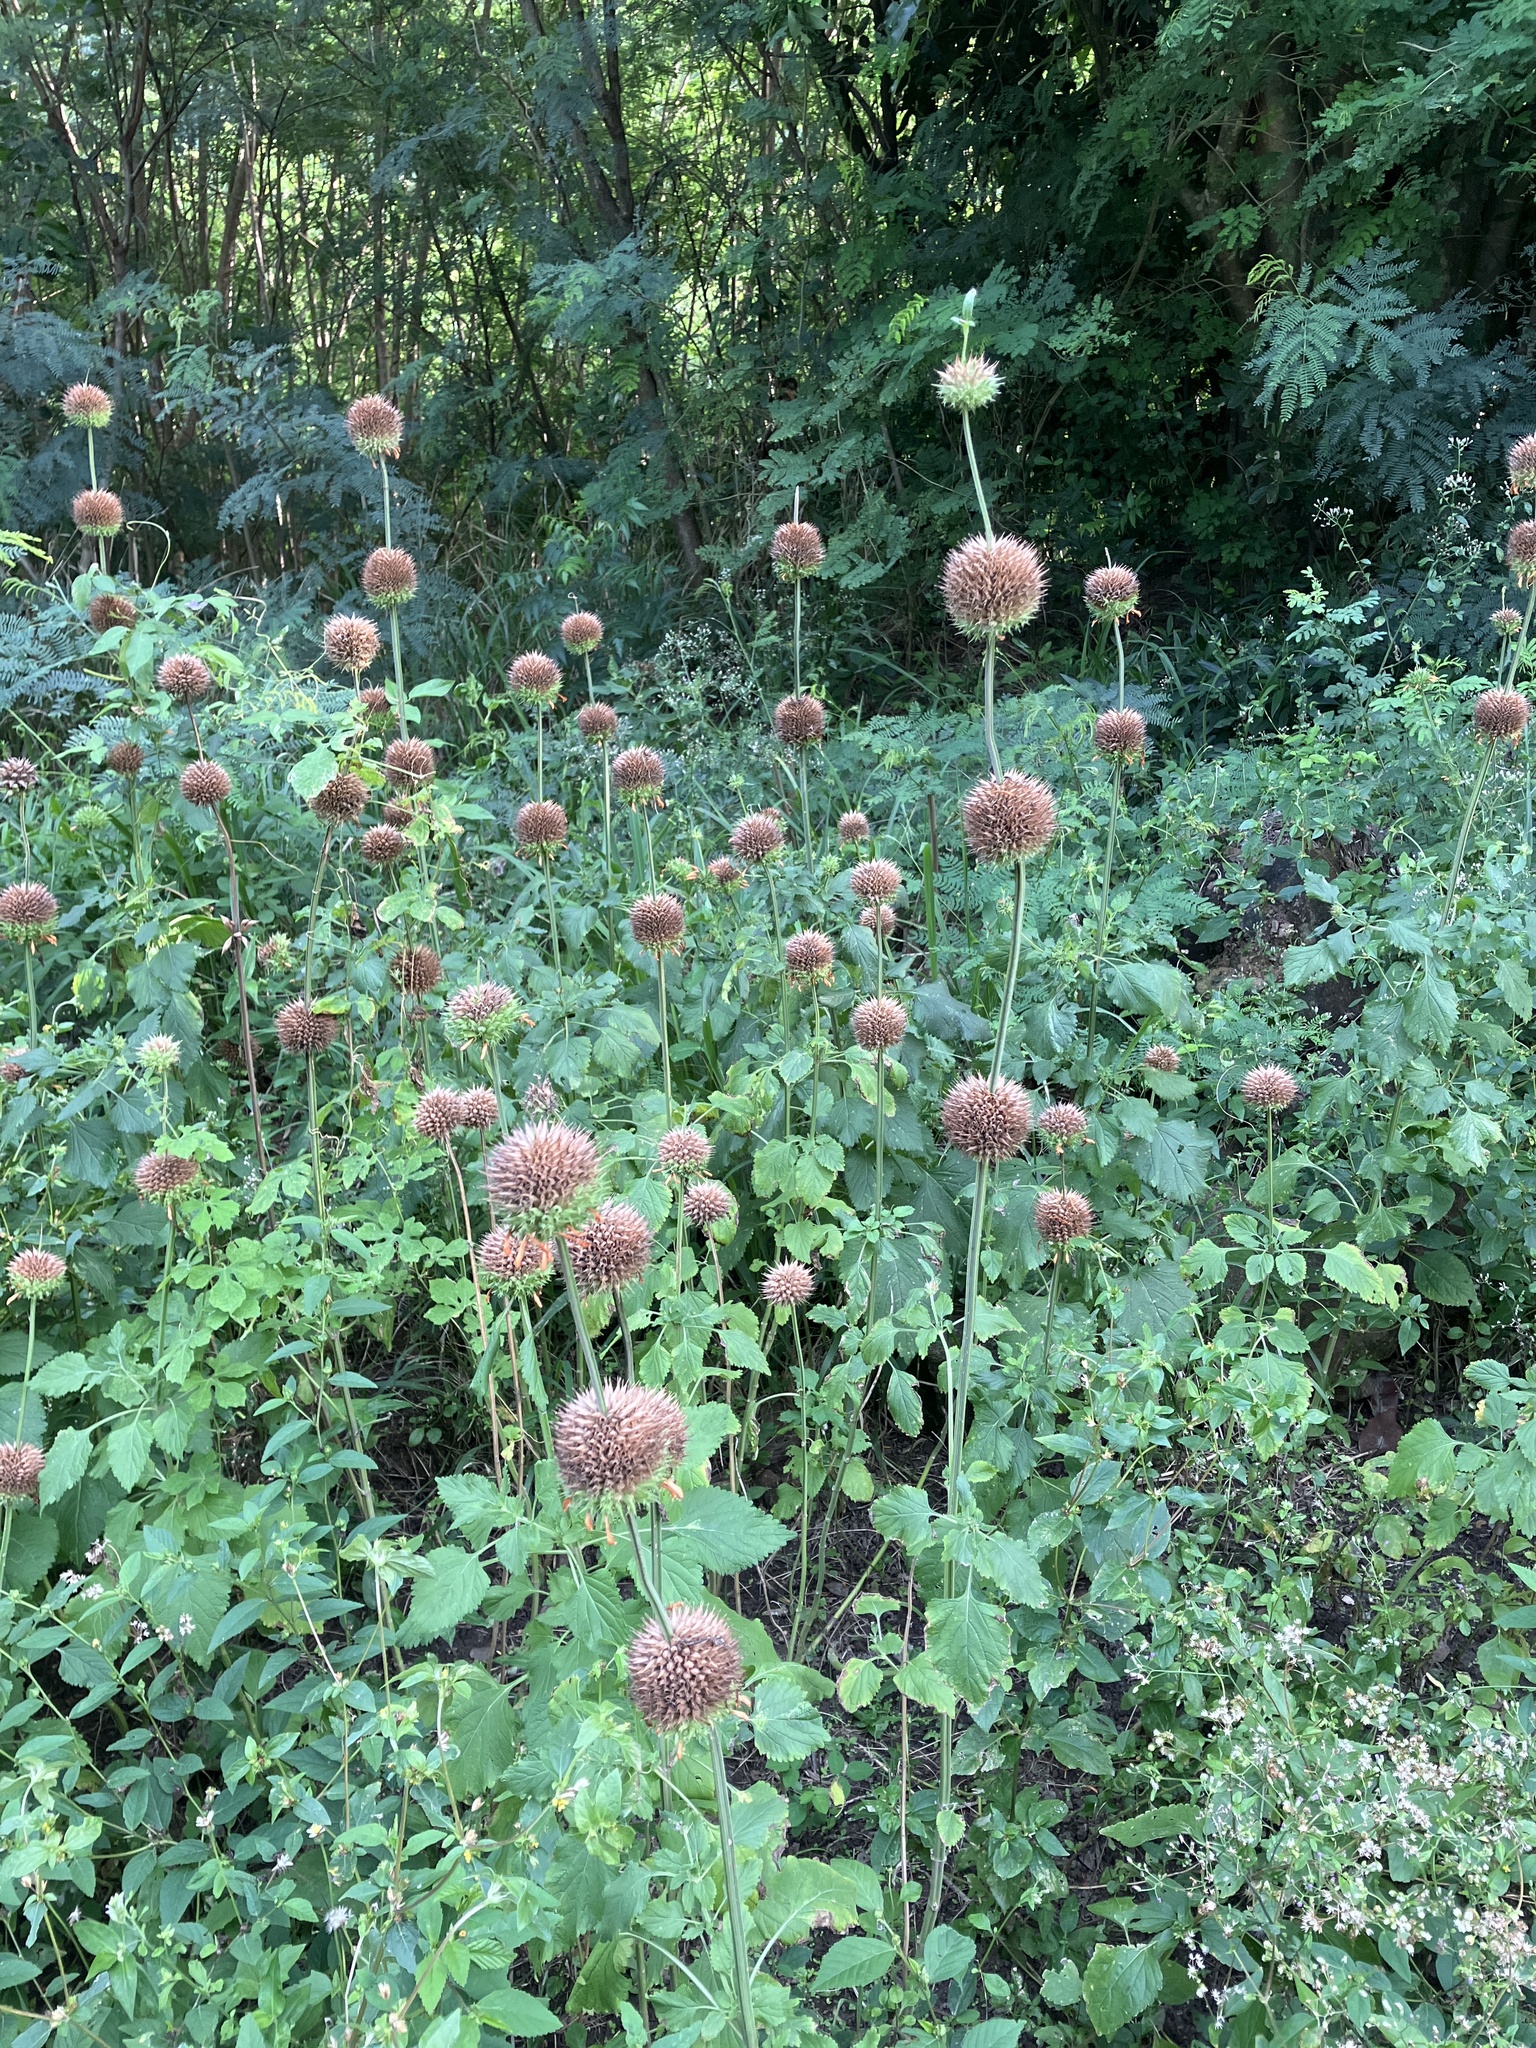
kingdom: Plantae
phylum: Tracheophyta
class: Magnoliopsida
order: Lamiales
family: Lamiaceae
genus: Leonotis
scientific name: Leonotis nepetifolia
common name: Christmas candlestick
